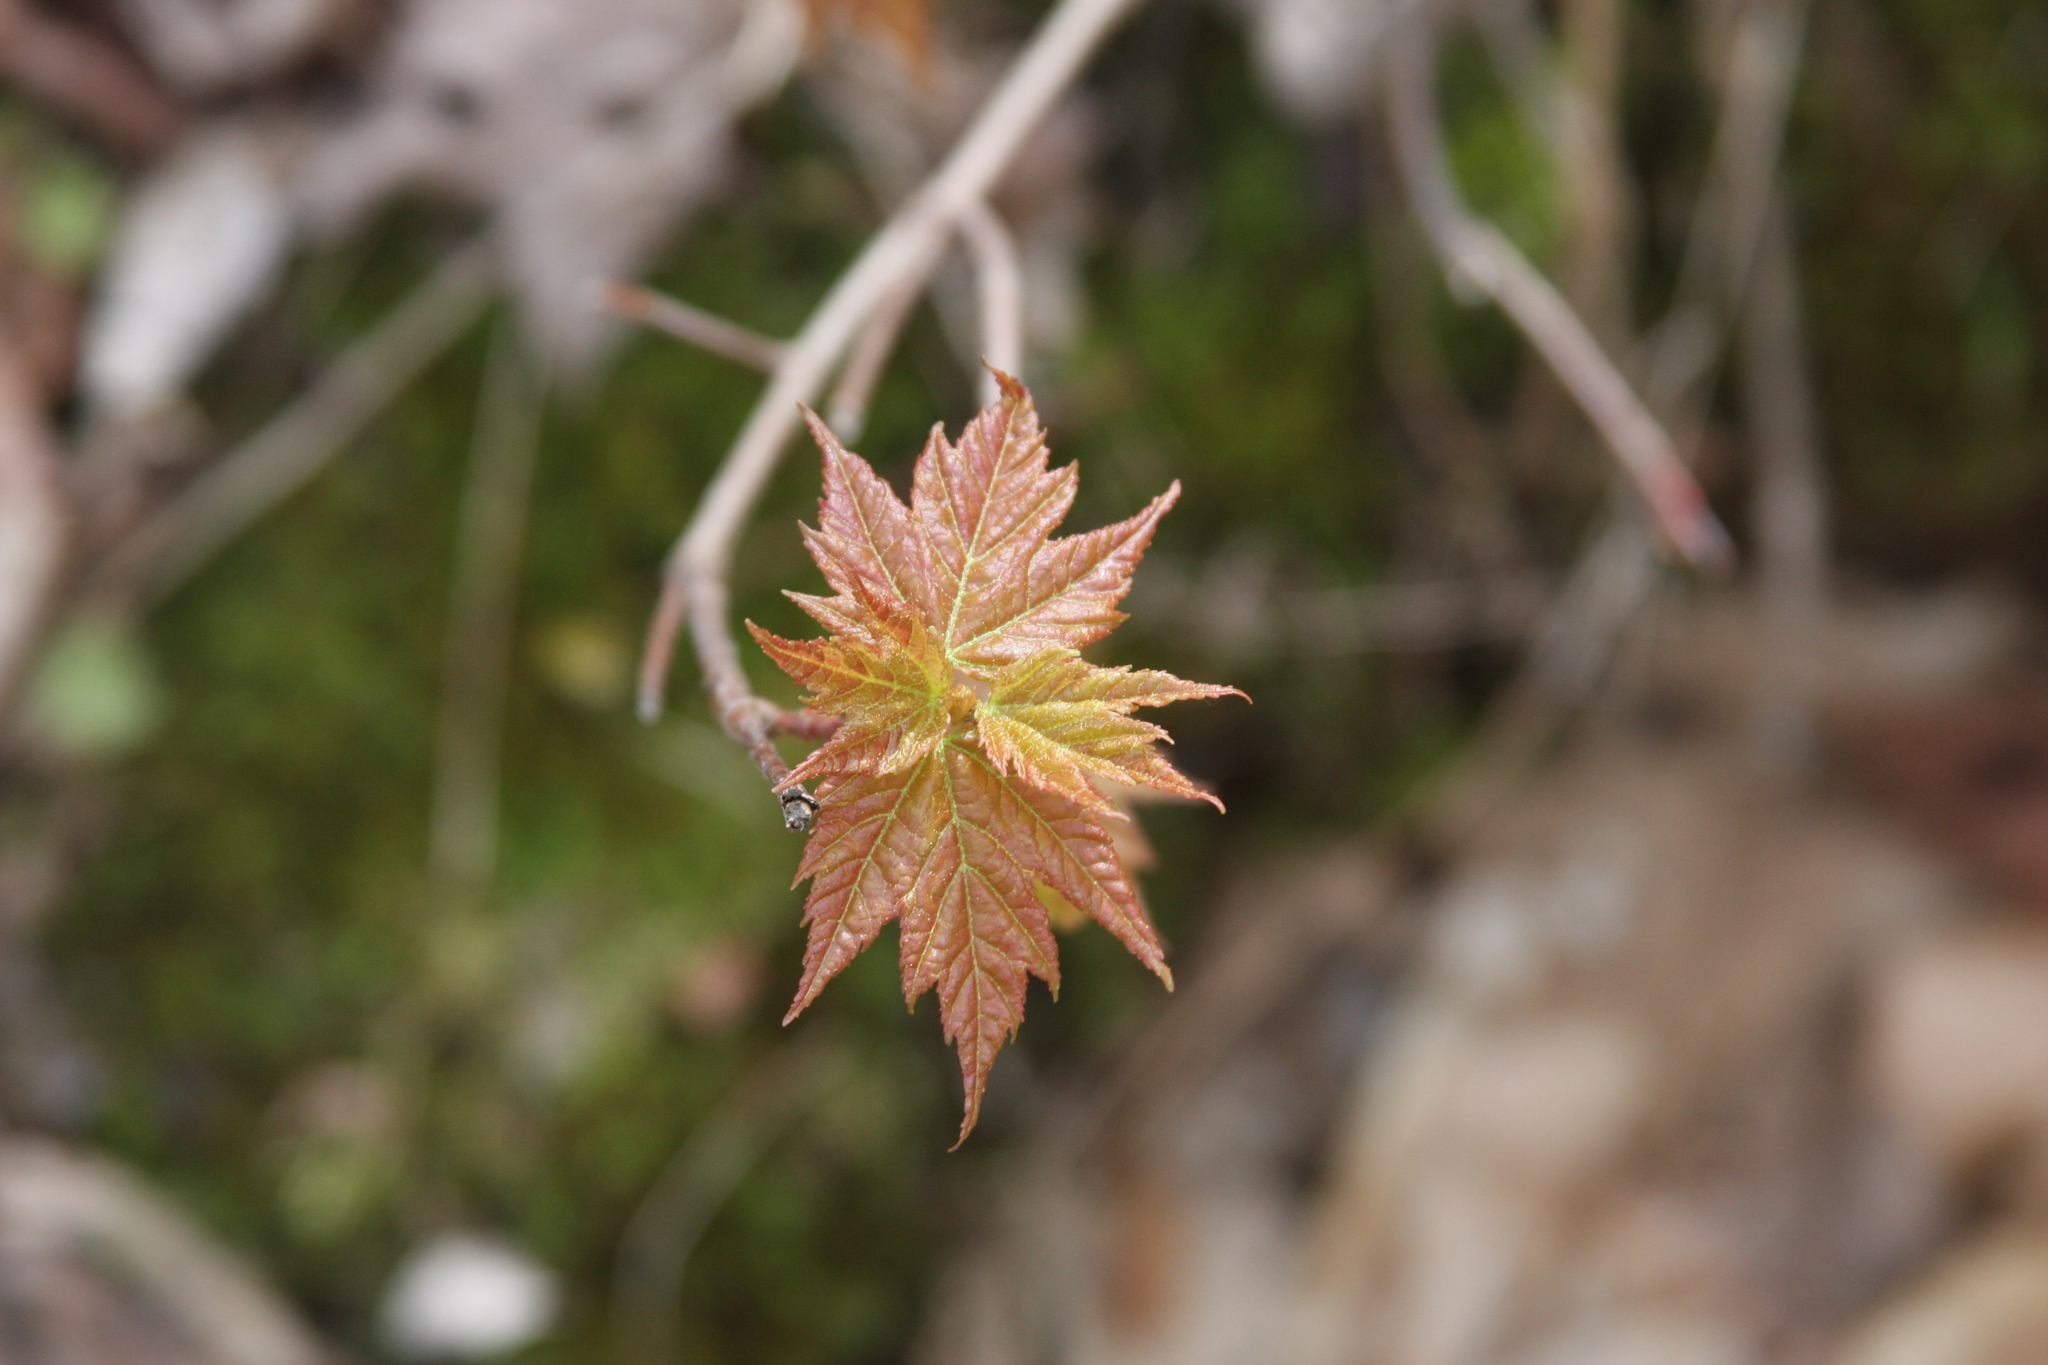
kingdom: Plantae
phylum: Tracheophyta
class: Magnoliopsida
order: Sapindales
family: Sapindaceae
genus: Acer
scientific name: Acer rubrum
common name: Red maple
